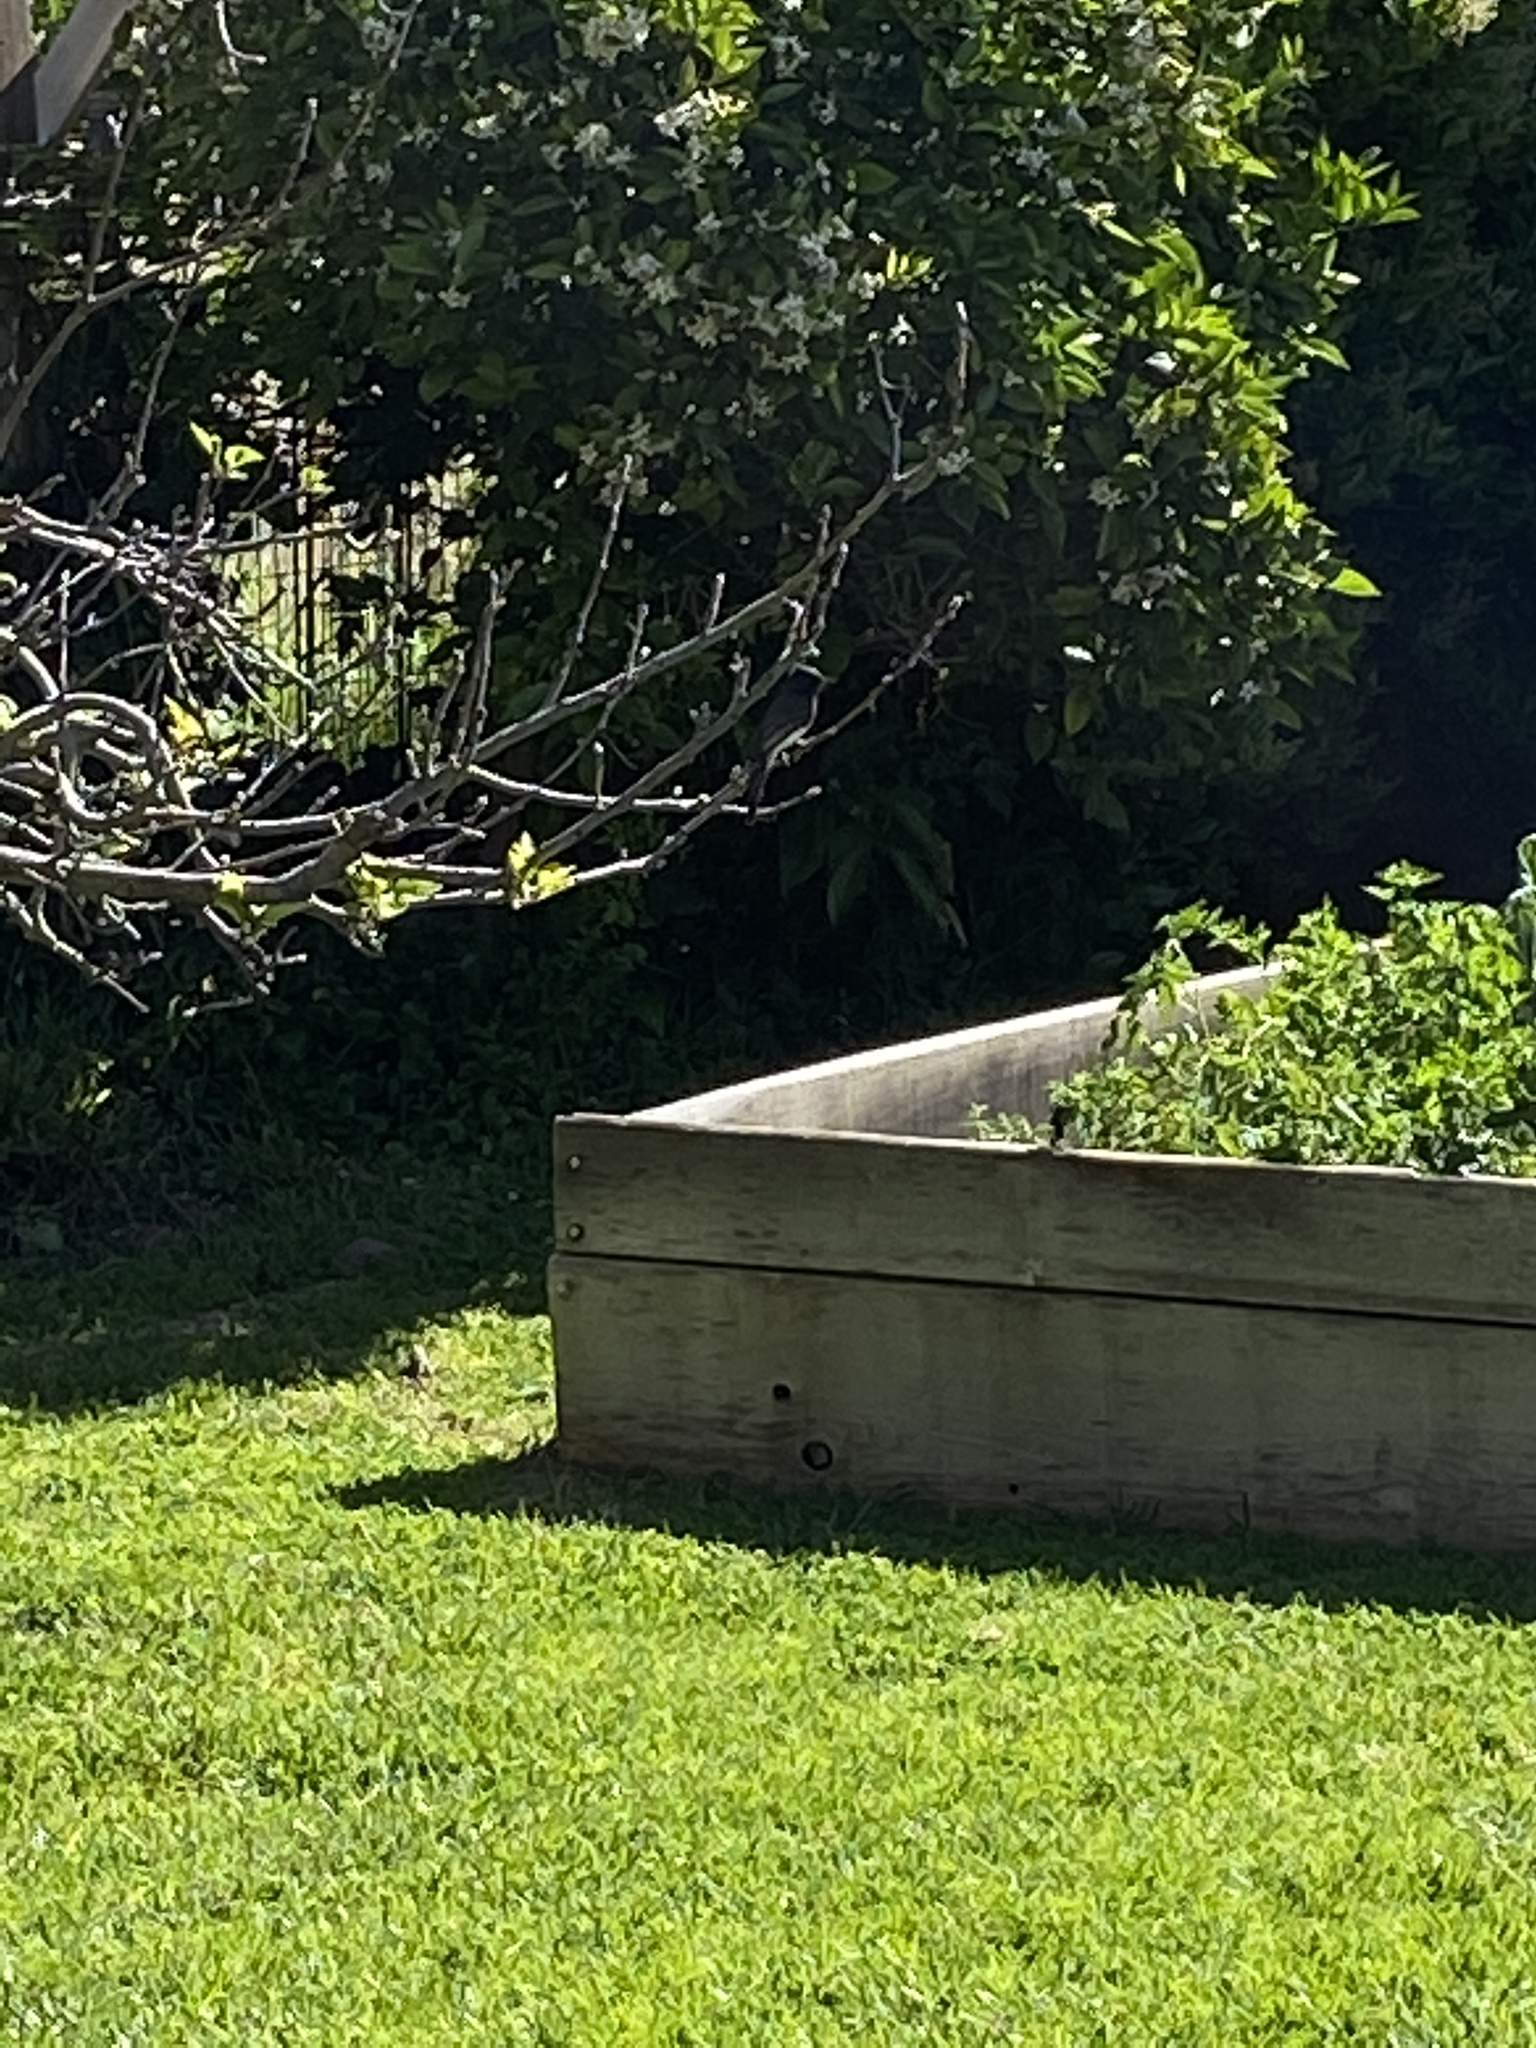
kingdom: Animalia
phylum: Chordata
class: Aves
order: Passeriformes
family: Tyrannidae
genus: Sayornis
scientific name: Sayornis nigricans
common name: Black phoebe
